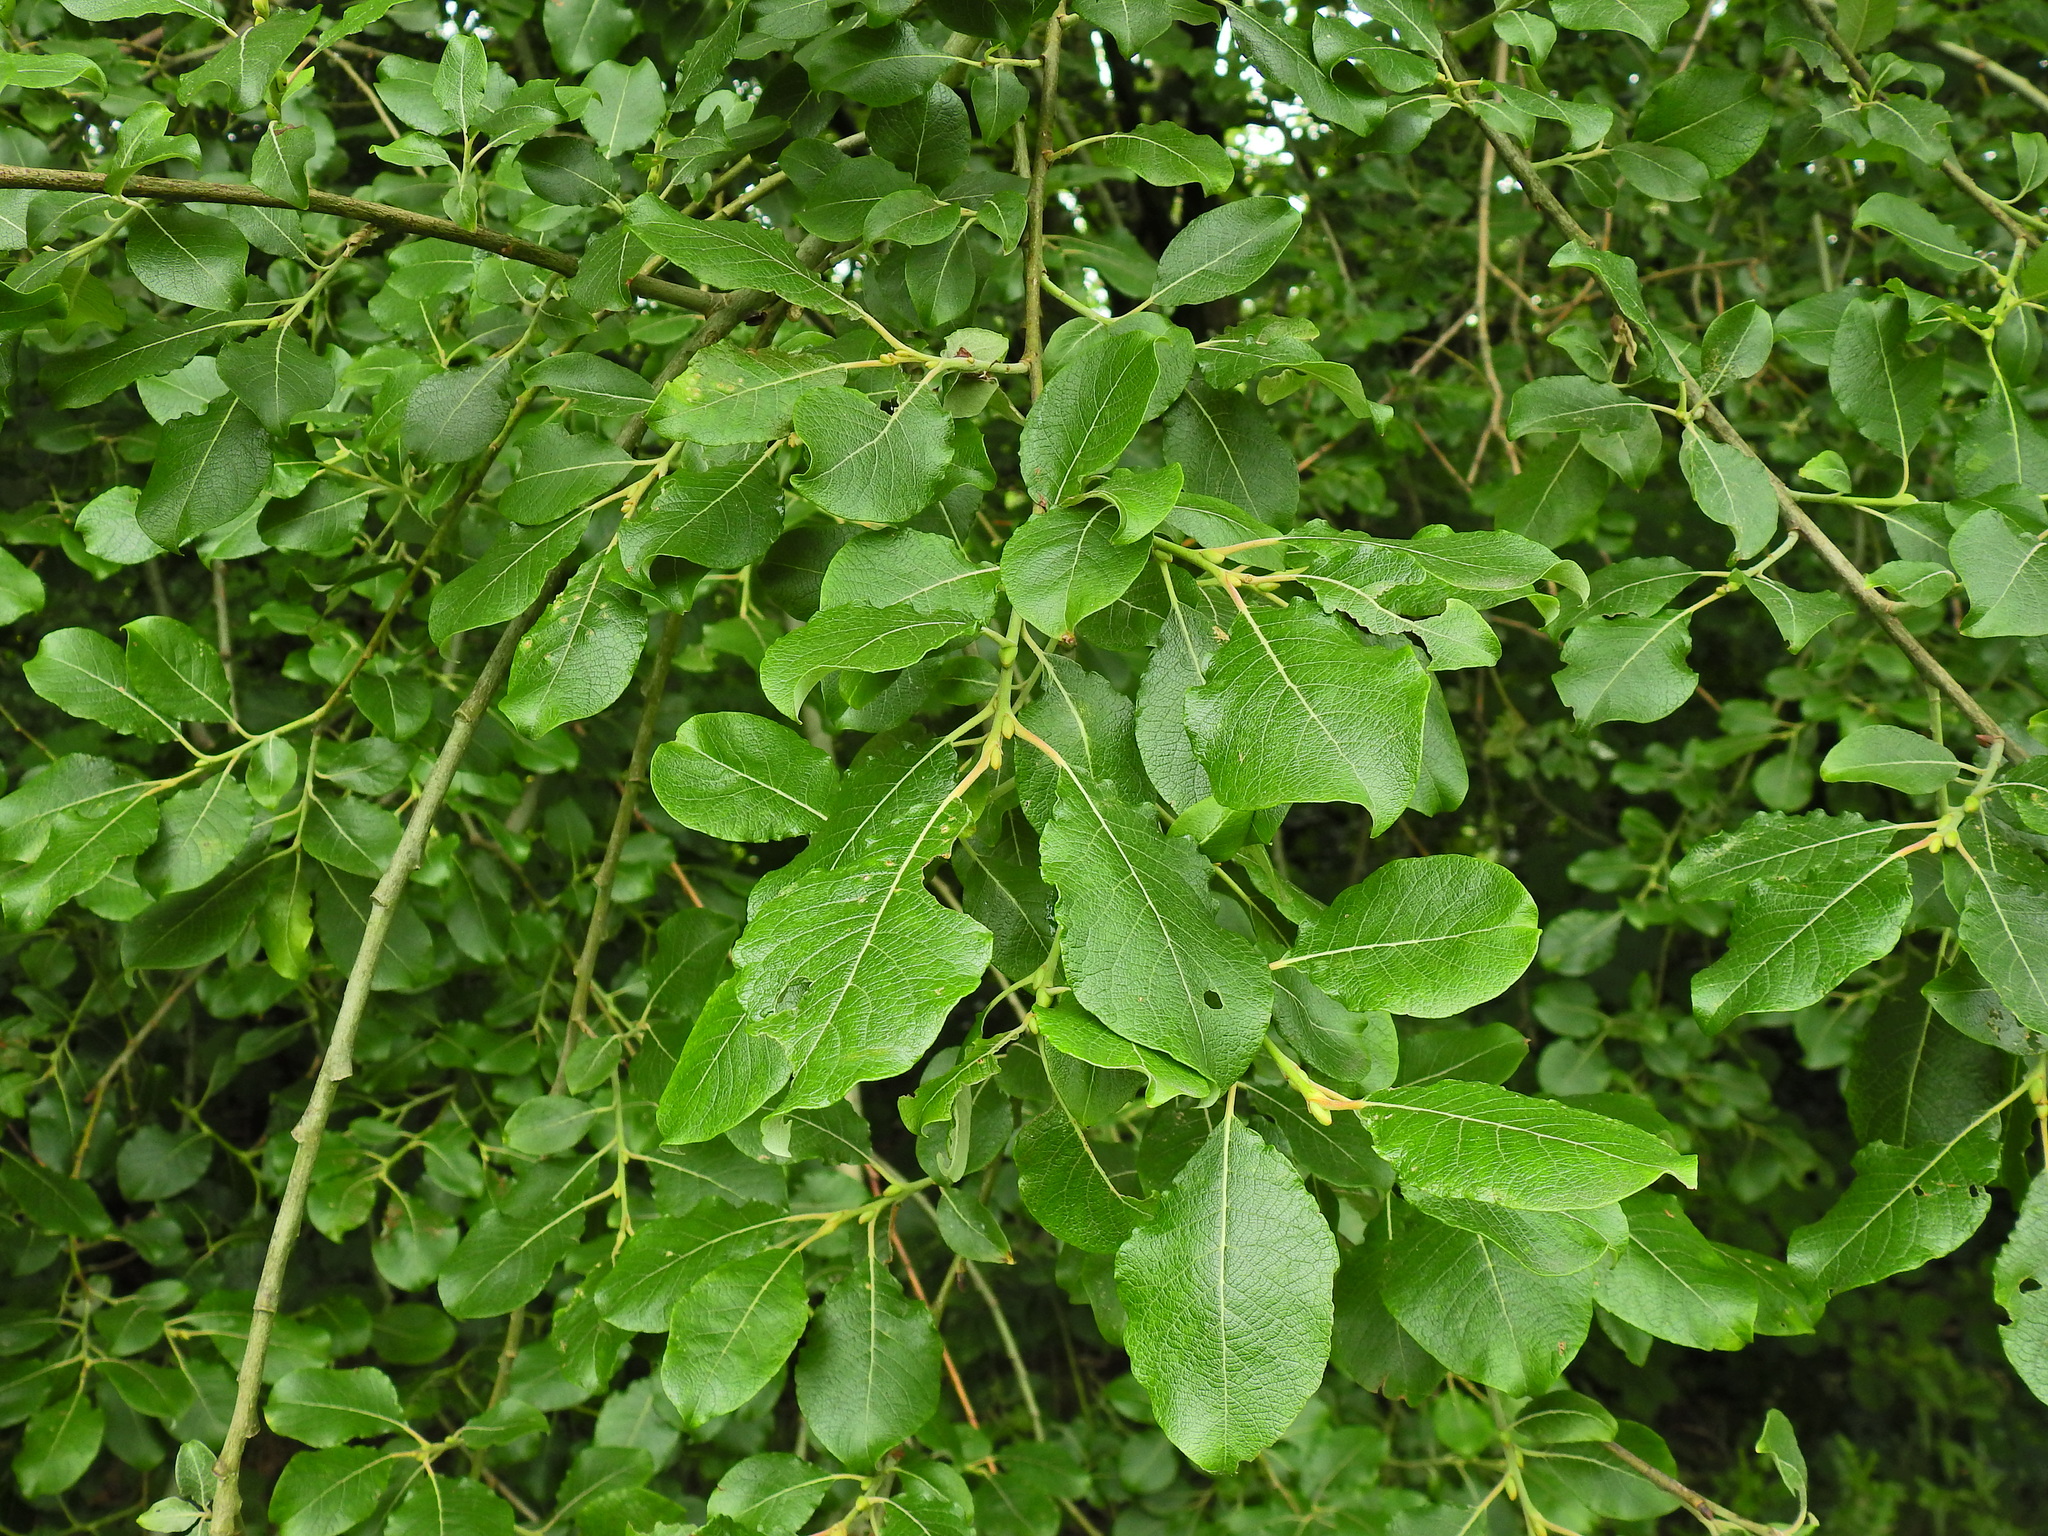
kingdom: Plantae
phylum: Tracheophyta
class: Magnoliopsida
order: Malpighiales
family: Salicaceae
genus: Salix
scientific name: Salix caprea
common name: Goat willow
